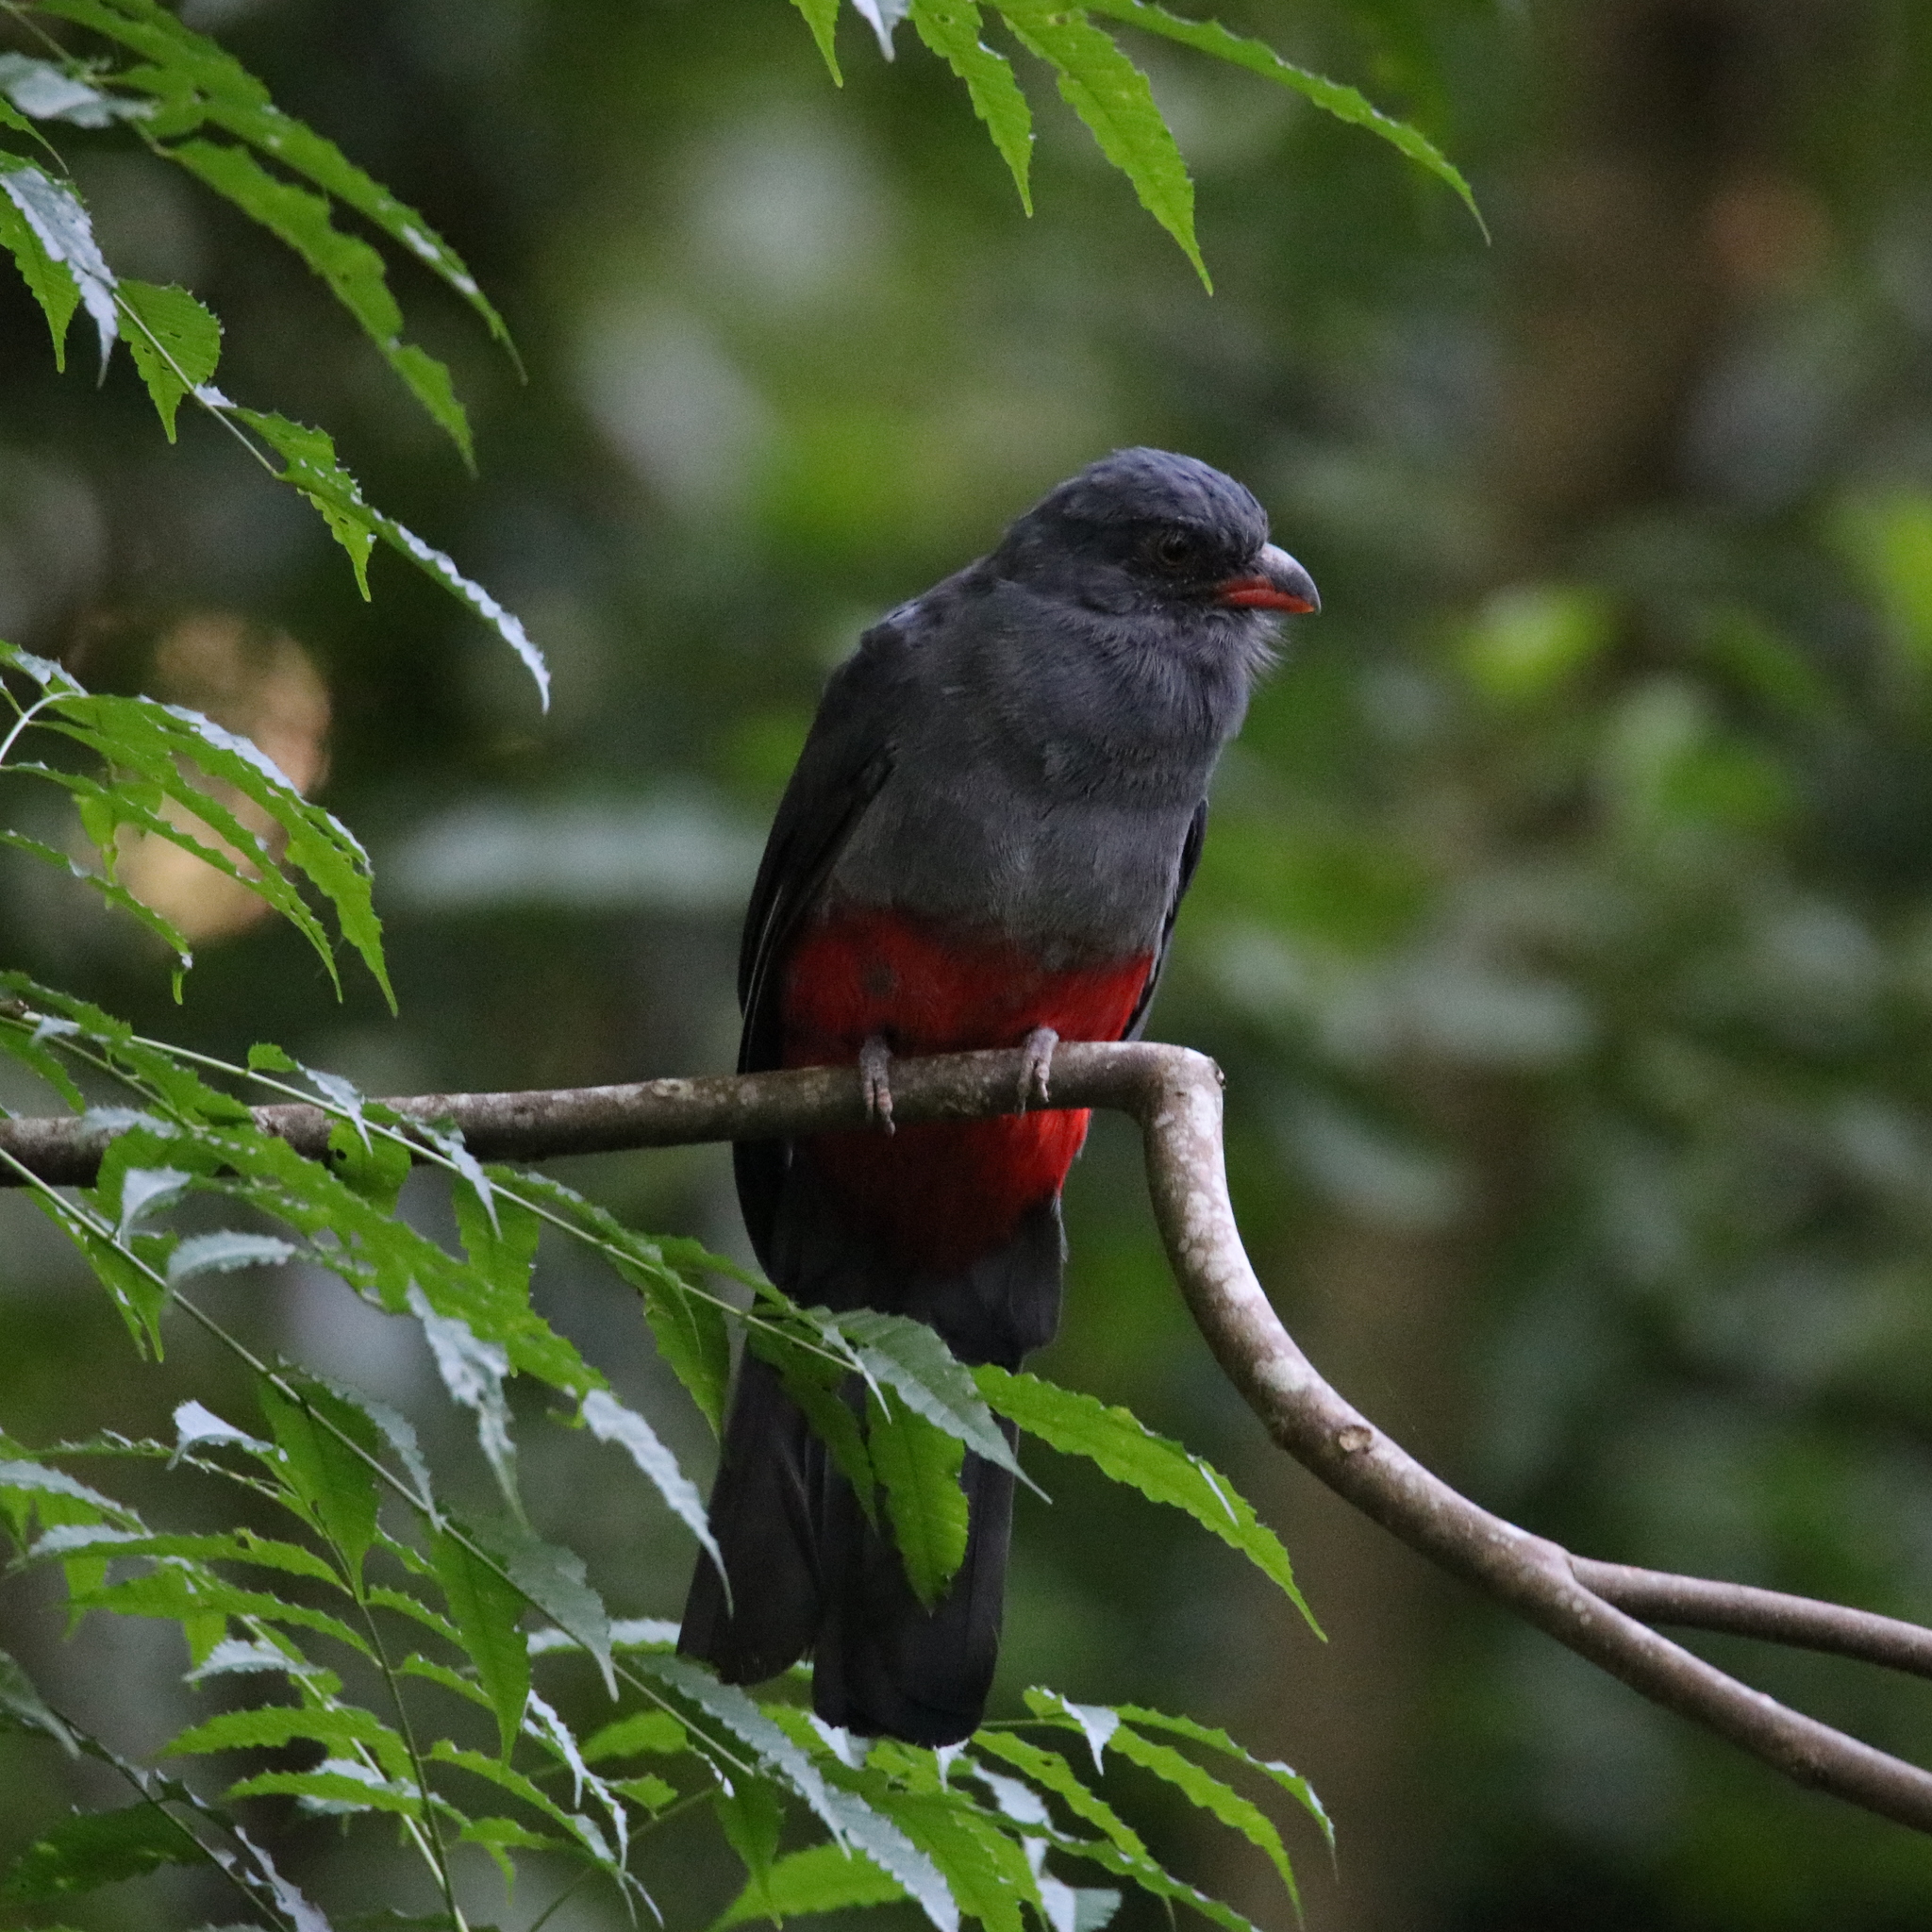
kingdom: Animalia
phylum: Chordata
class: Aves
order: Trogoniformes
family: Trogonidae
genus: Trogon
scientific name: Trogon massena
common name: Slaty-tailed trogon
